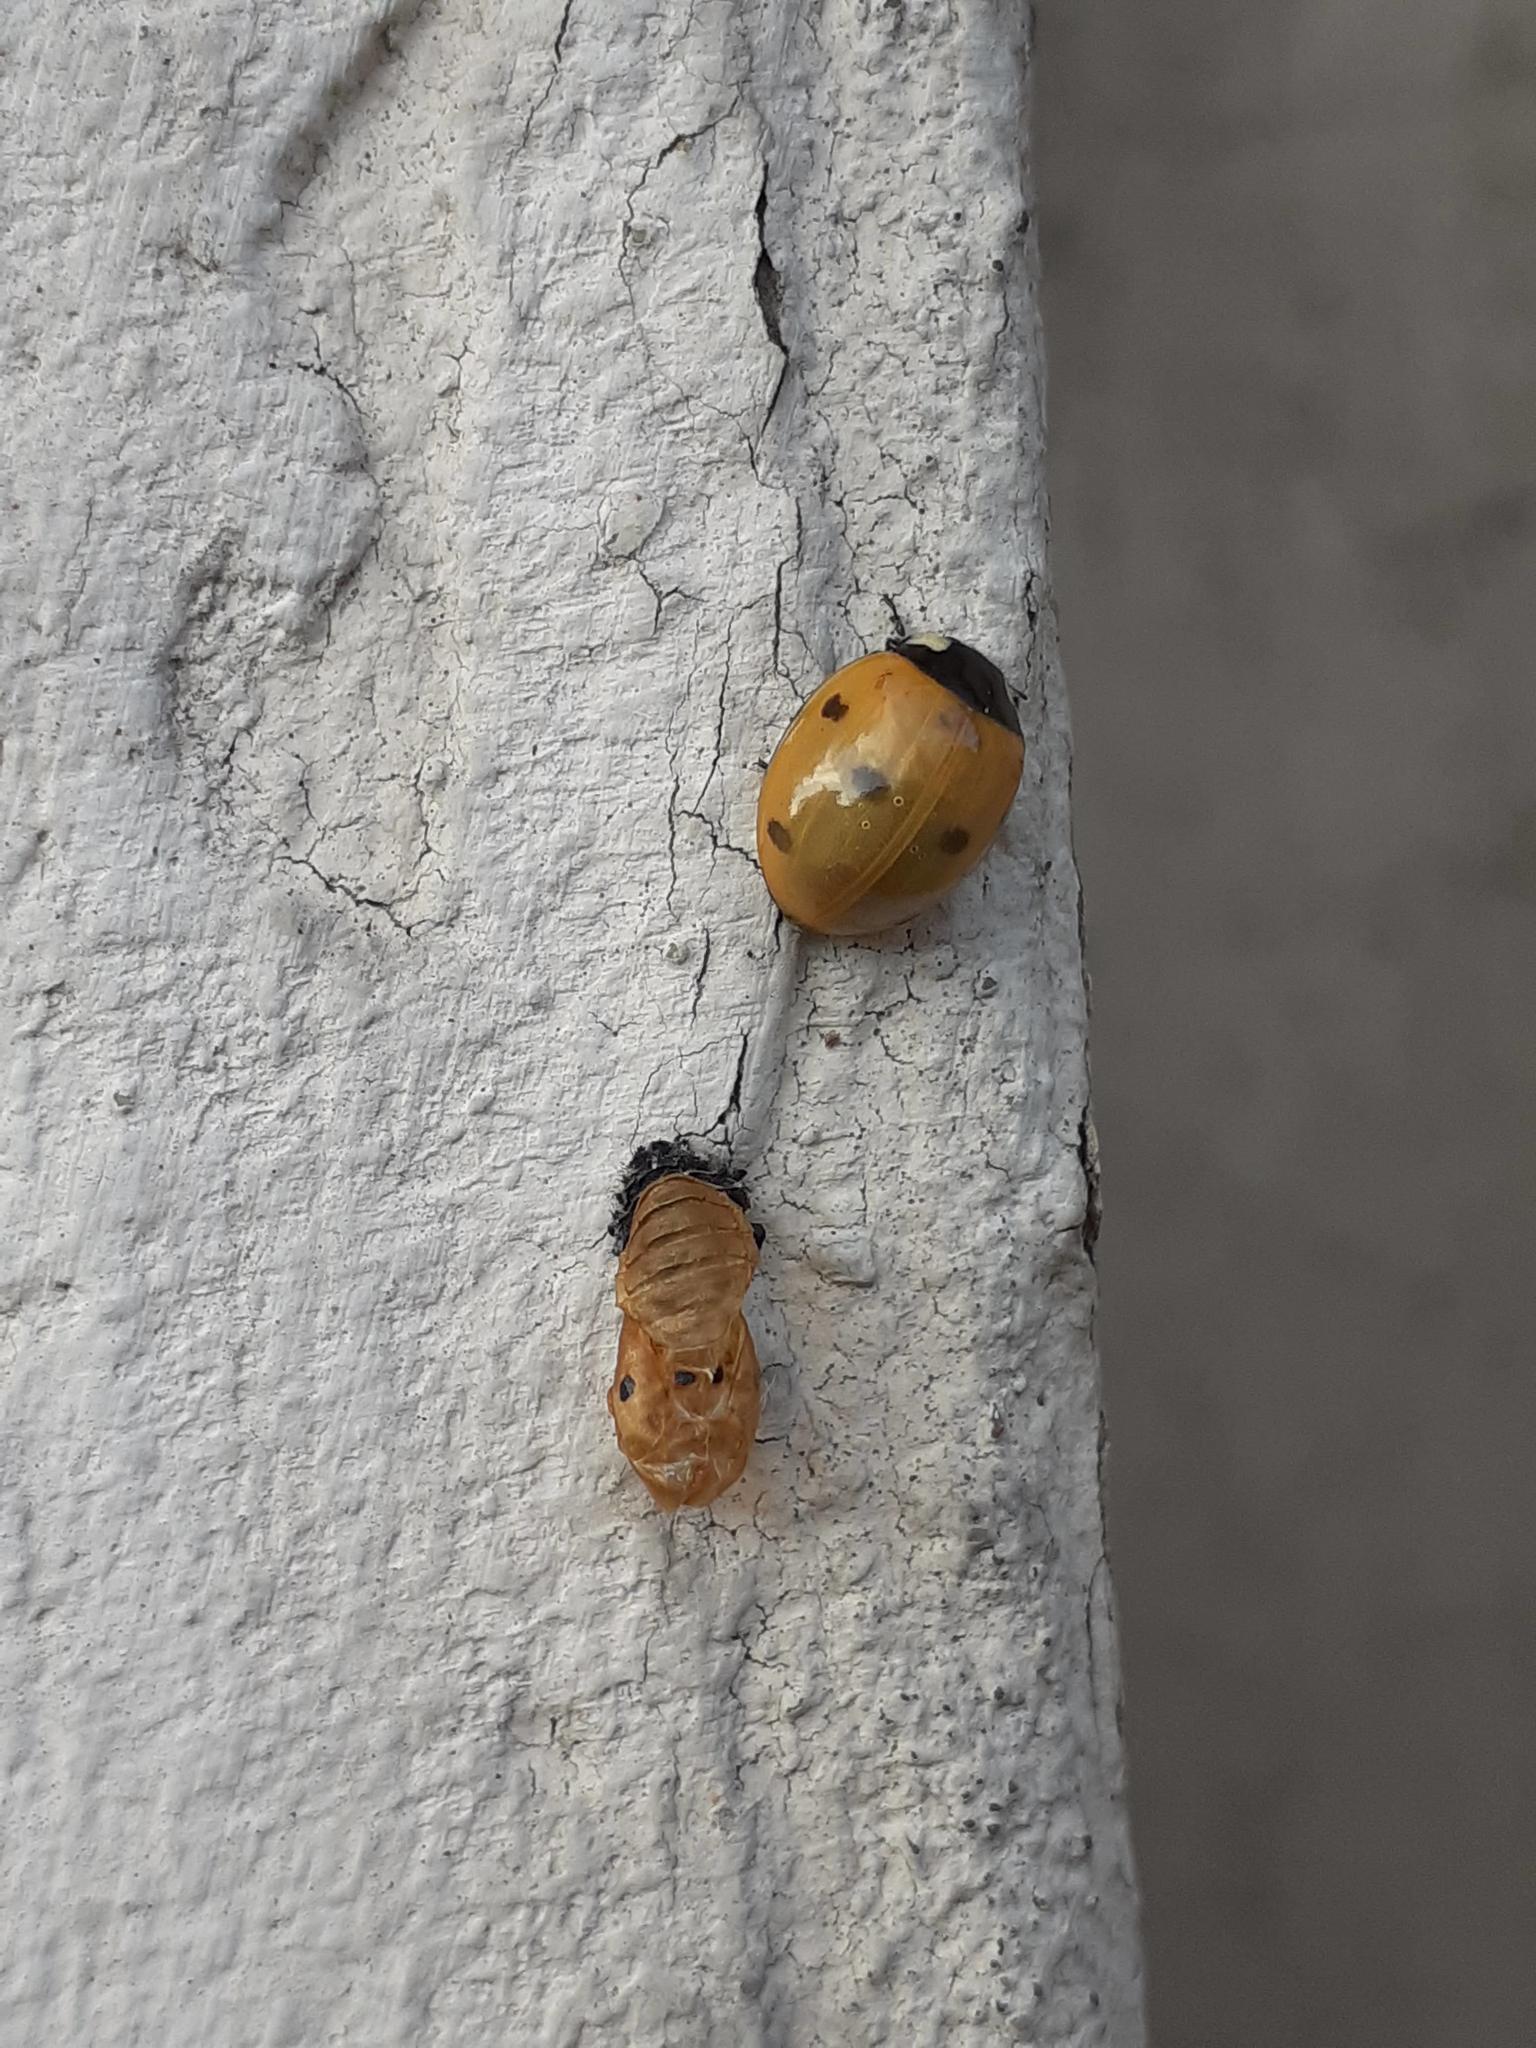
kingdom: Animalia
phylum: Arthropoda
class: Insecta
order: Coleoptera
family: Coccinellidae
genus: Coccinella
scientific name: Coccinella septempunctata
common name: Sevenspotted lady beetle
